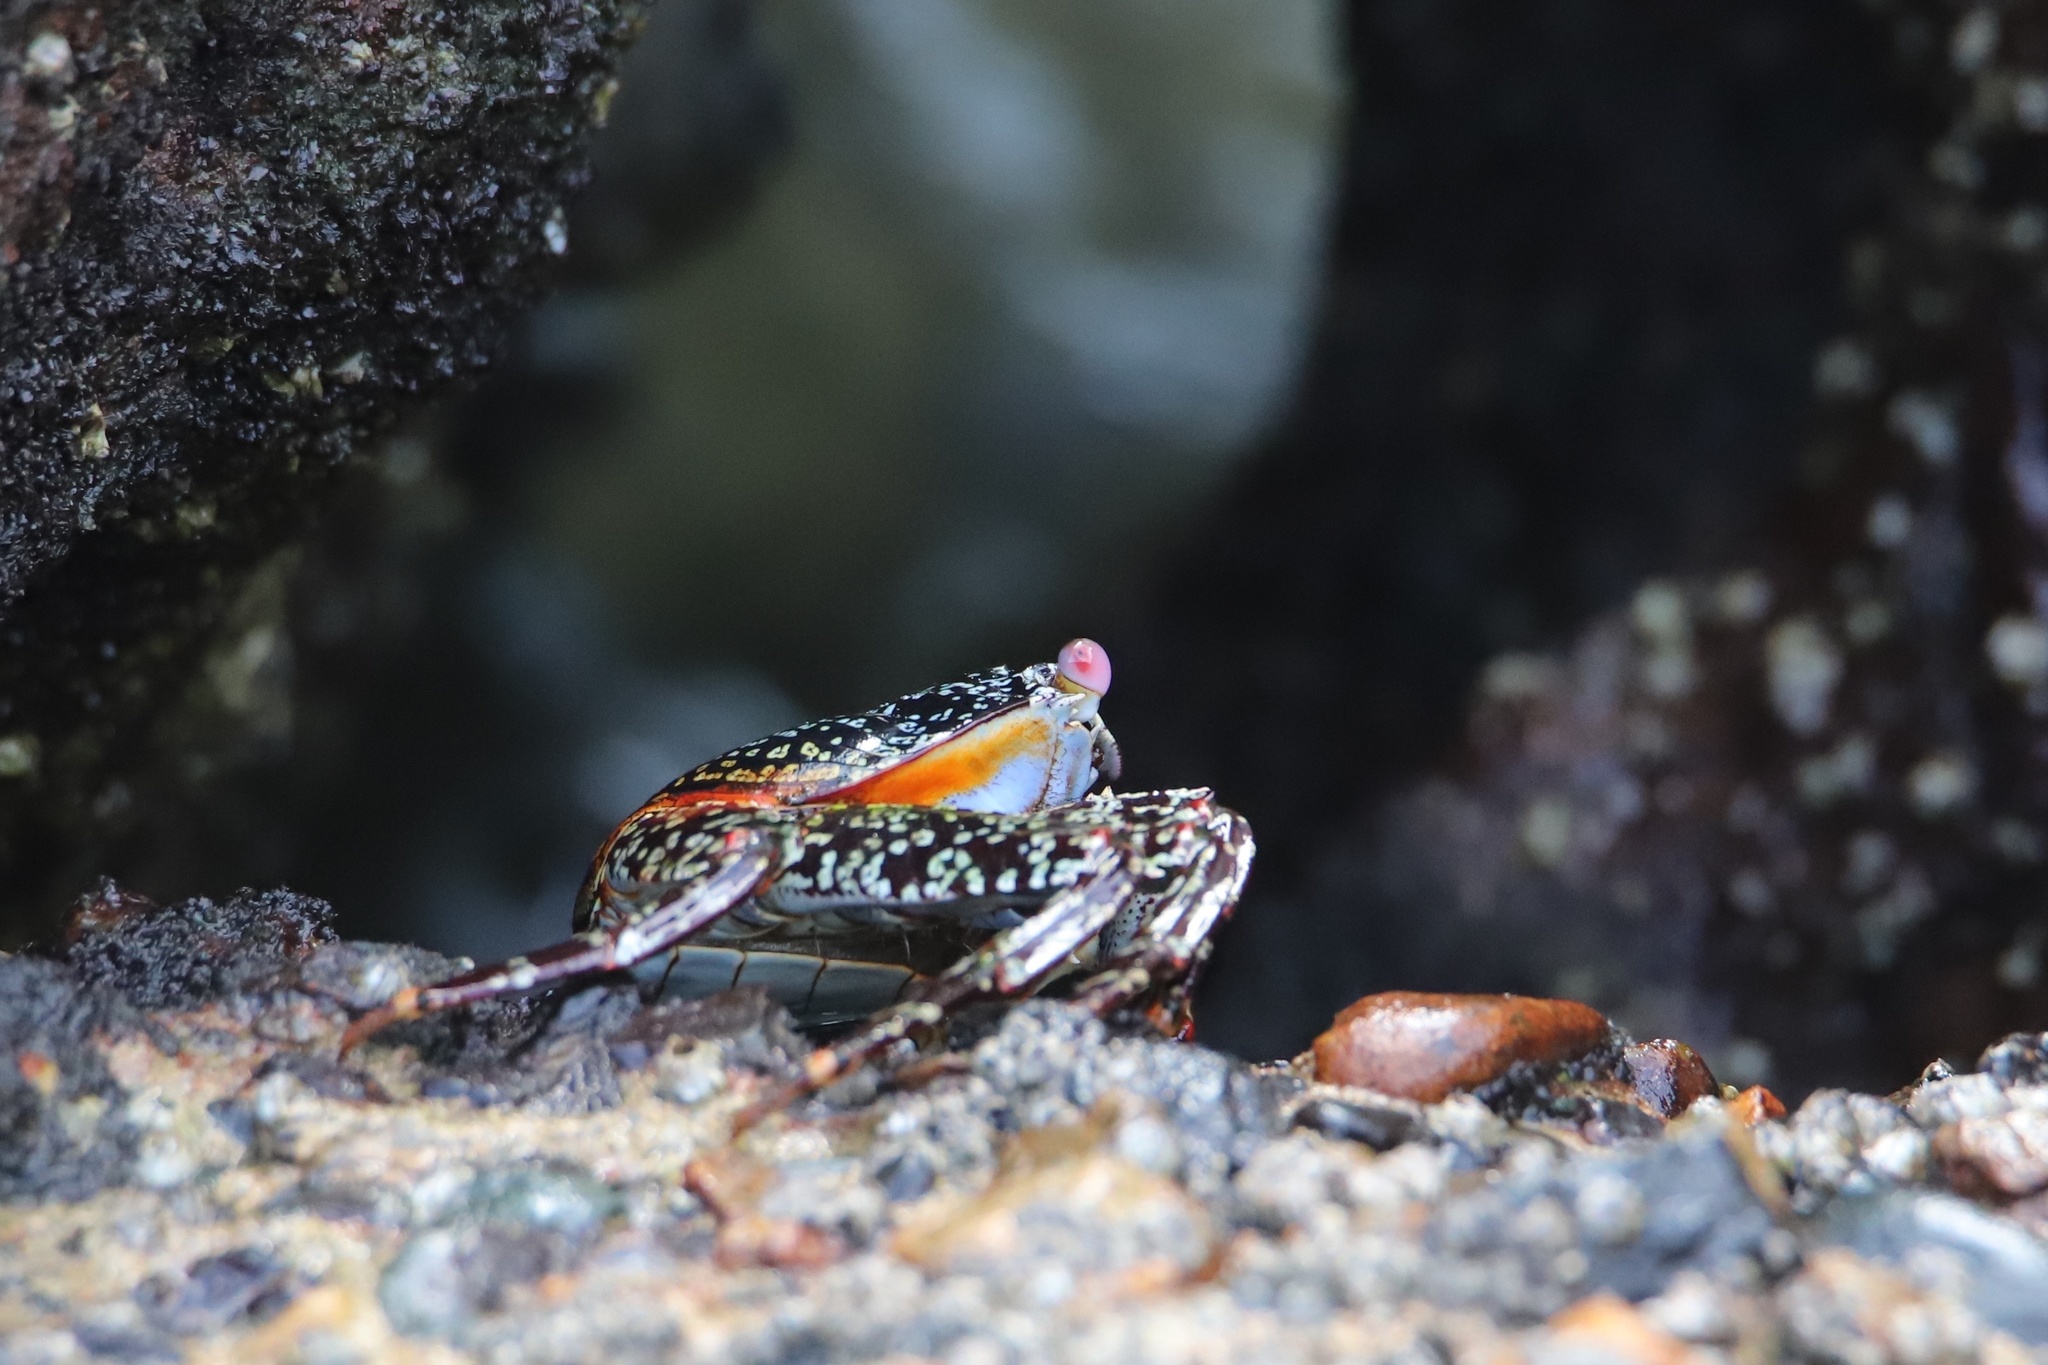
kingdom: Animalia
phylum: Arthropoda
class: Malacostraca
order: Decapoda
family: Grapsidae
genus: Grapsus
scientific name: Grapsus grapsus
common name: Sally lightfoot
